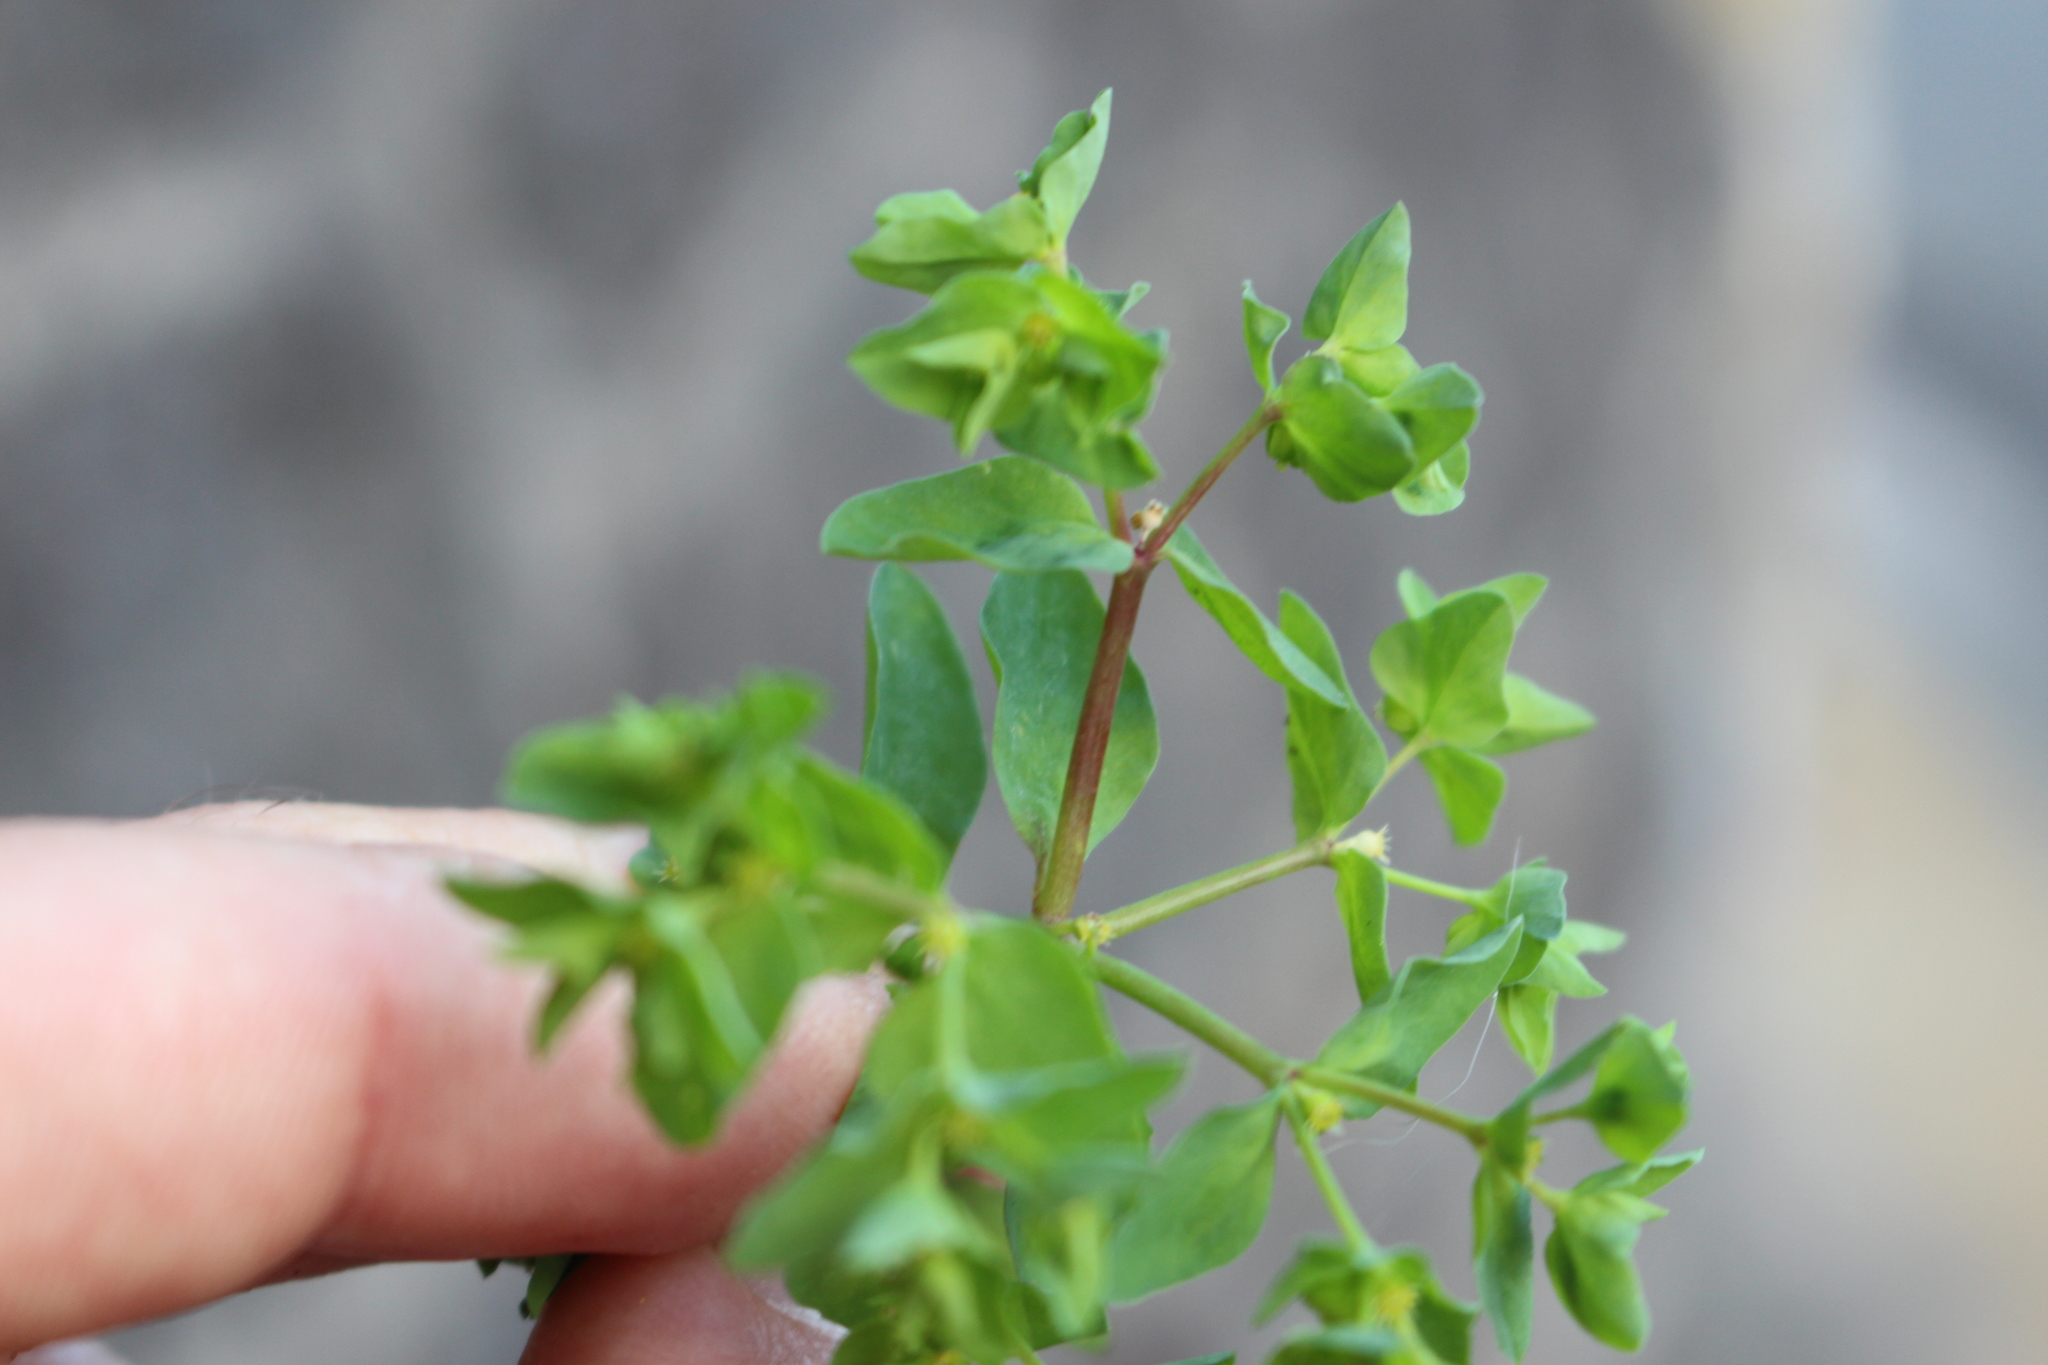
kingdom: Plantae
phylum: Tracheophyta
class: Magnoliopsida
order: Malpighiales
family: Euphorbiaceae
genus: Euphorbia
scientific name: Euphorbia peplus
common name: Petty spurge
